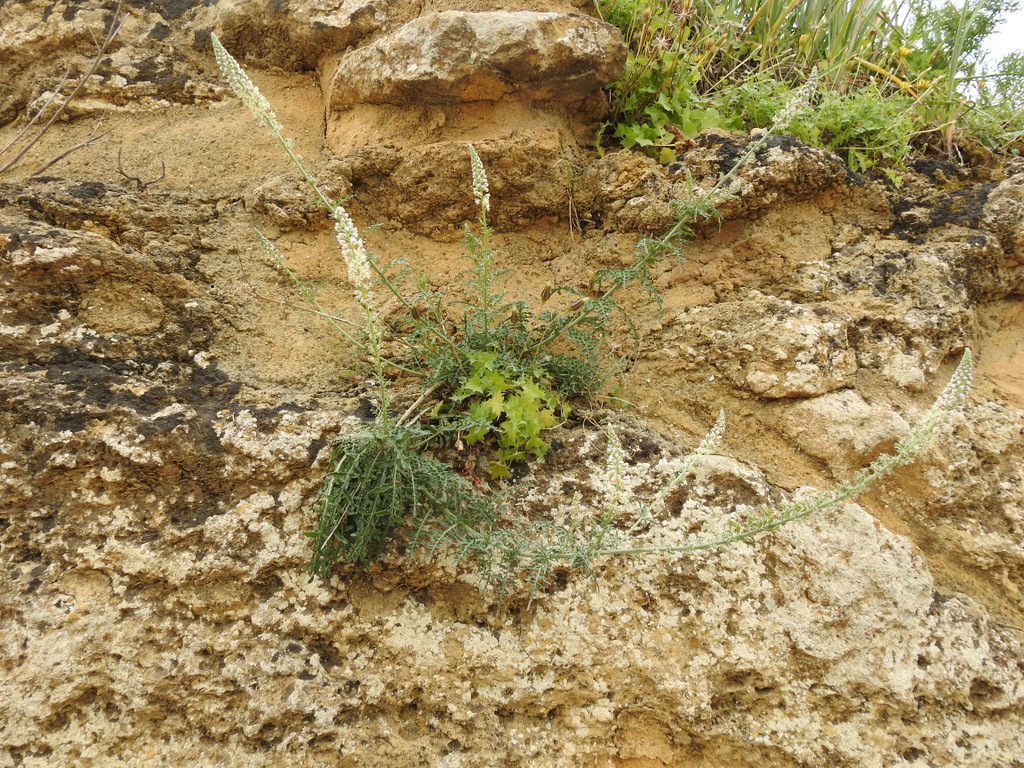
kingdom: Plantae
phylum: Tracheophyta
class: Magnoliopsida
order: Brassicales
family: Resedaceae
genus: Reseda
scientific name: Reseda alba
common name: White mignonette
